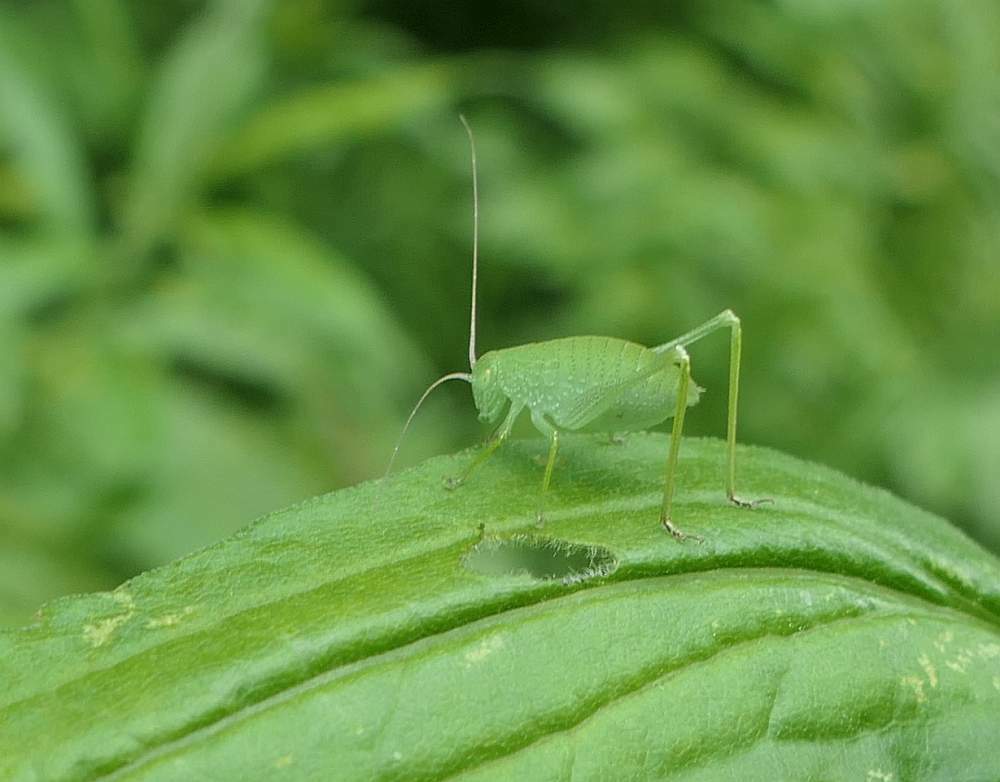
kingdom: Animalia
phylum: Arthropoda
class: Insecta
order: Orthoptera
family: Tettigoniidae
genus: Amblycorypha
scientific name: Amblycorypha oblongifolia
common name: Oblong-winged katydid
